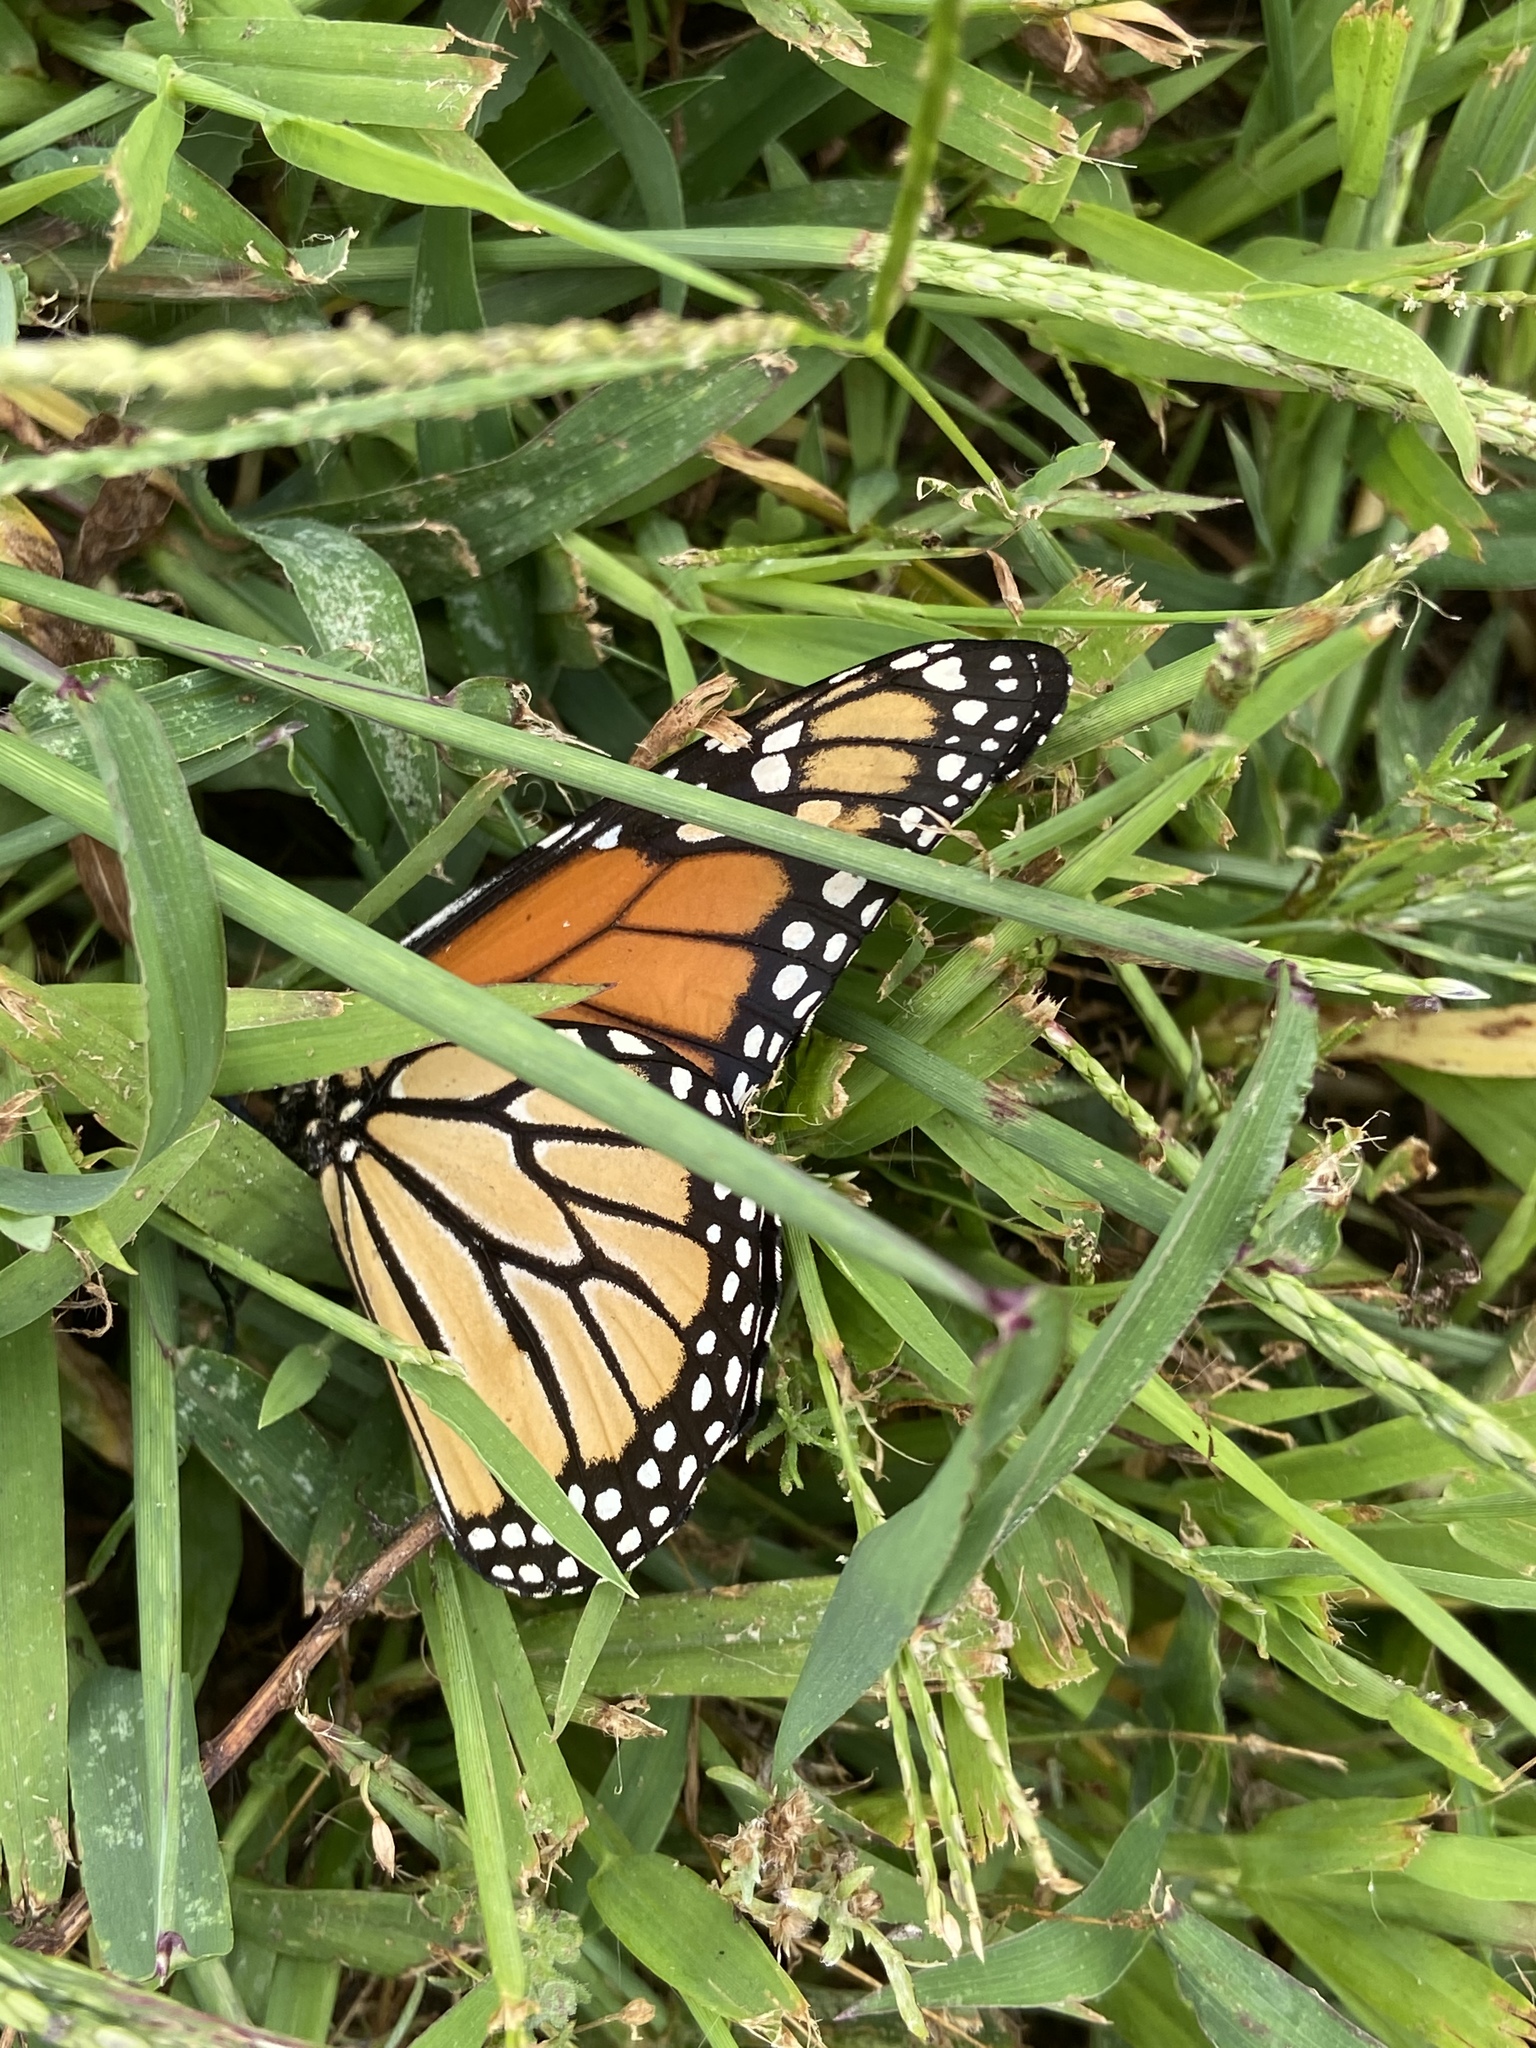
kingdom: Animalia
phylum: Arthropoda
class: Insecta
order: Lepidoptera
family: Nymphalidae
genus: Danaus
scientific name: Danaus plexippus
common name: Monarch
